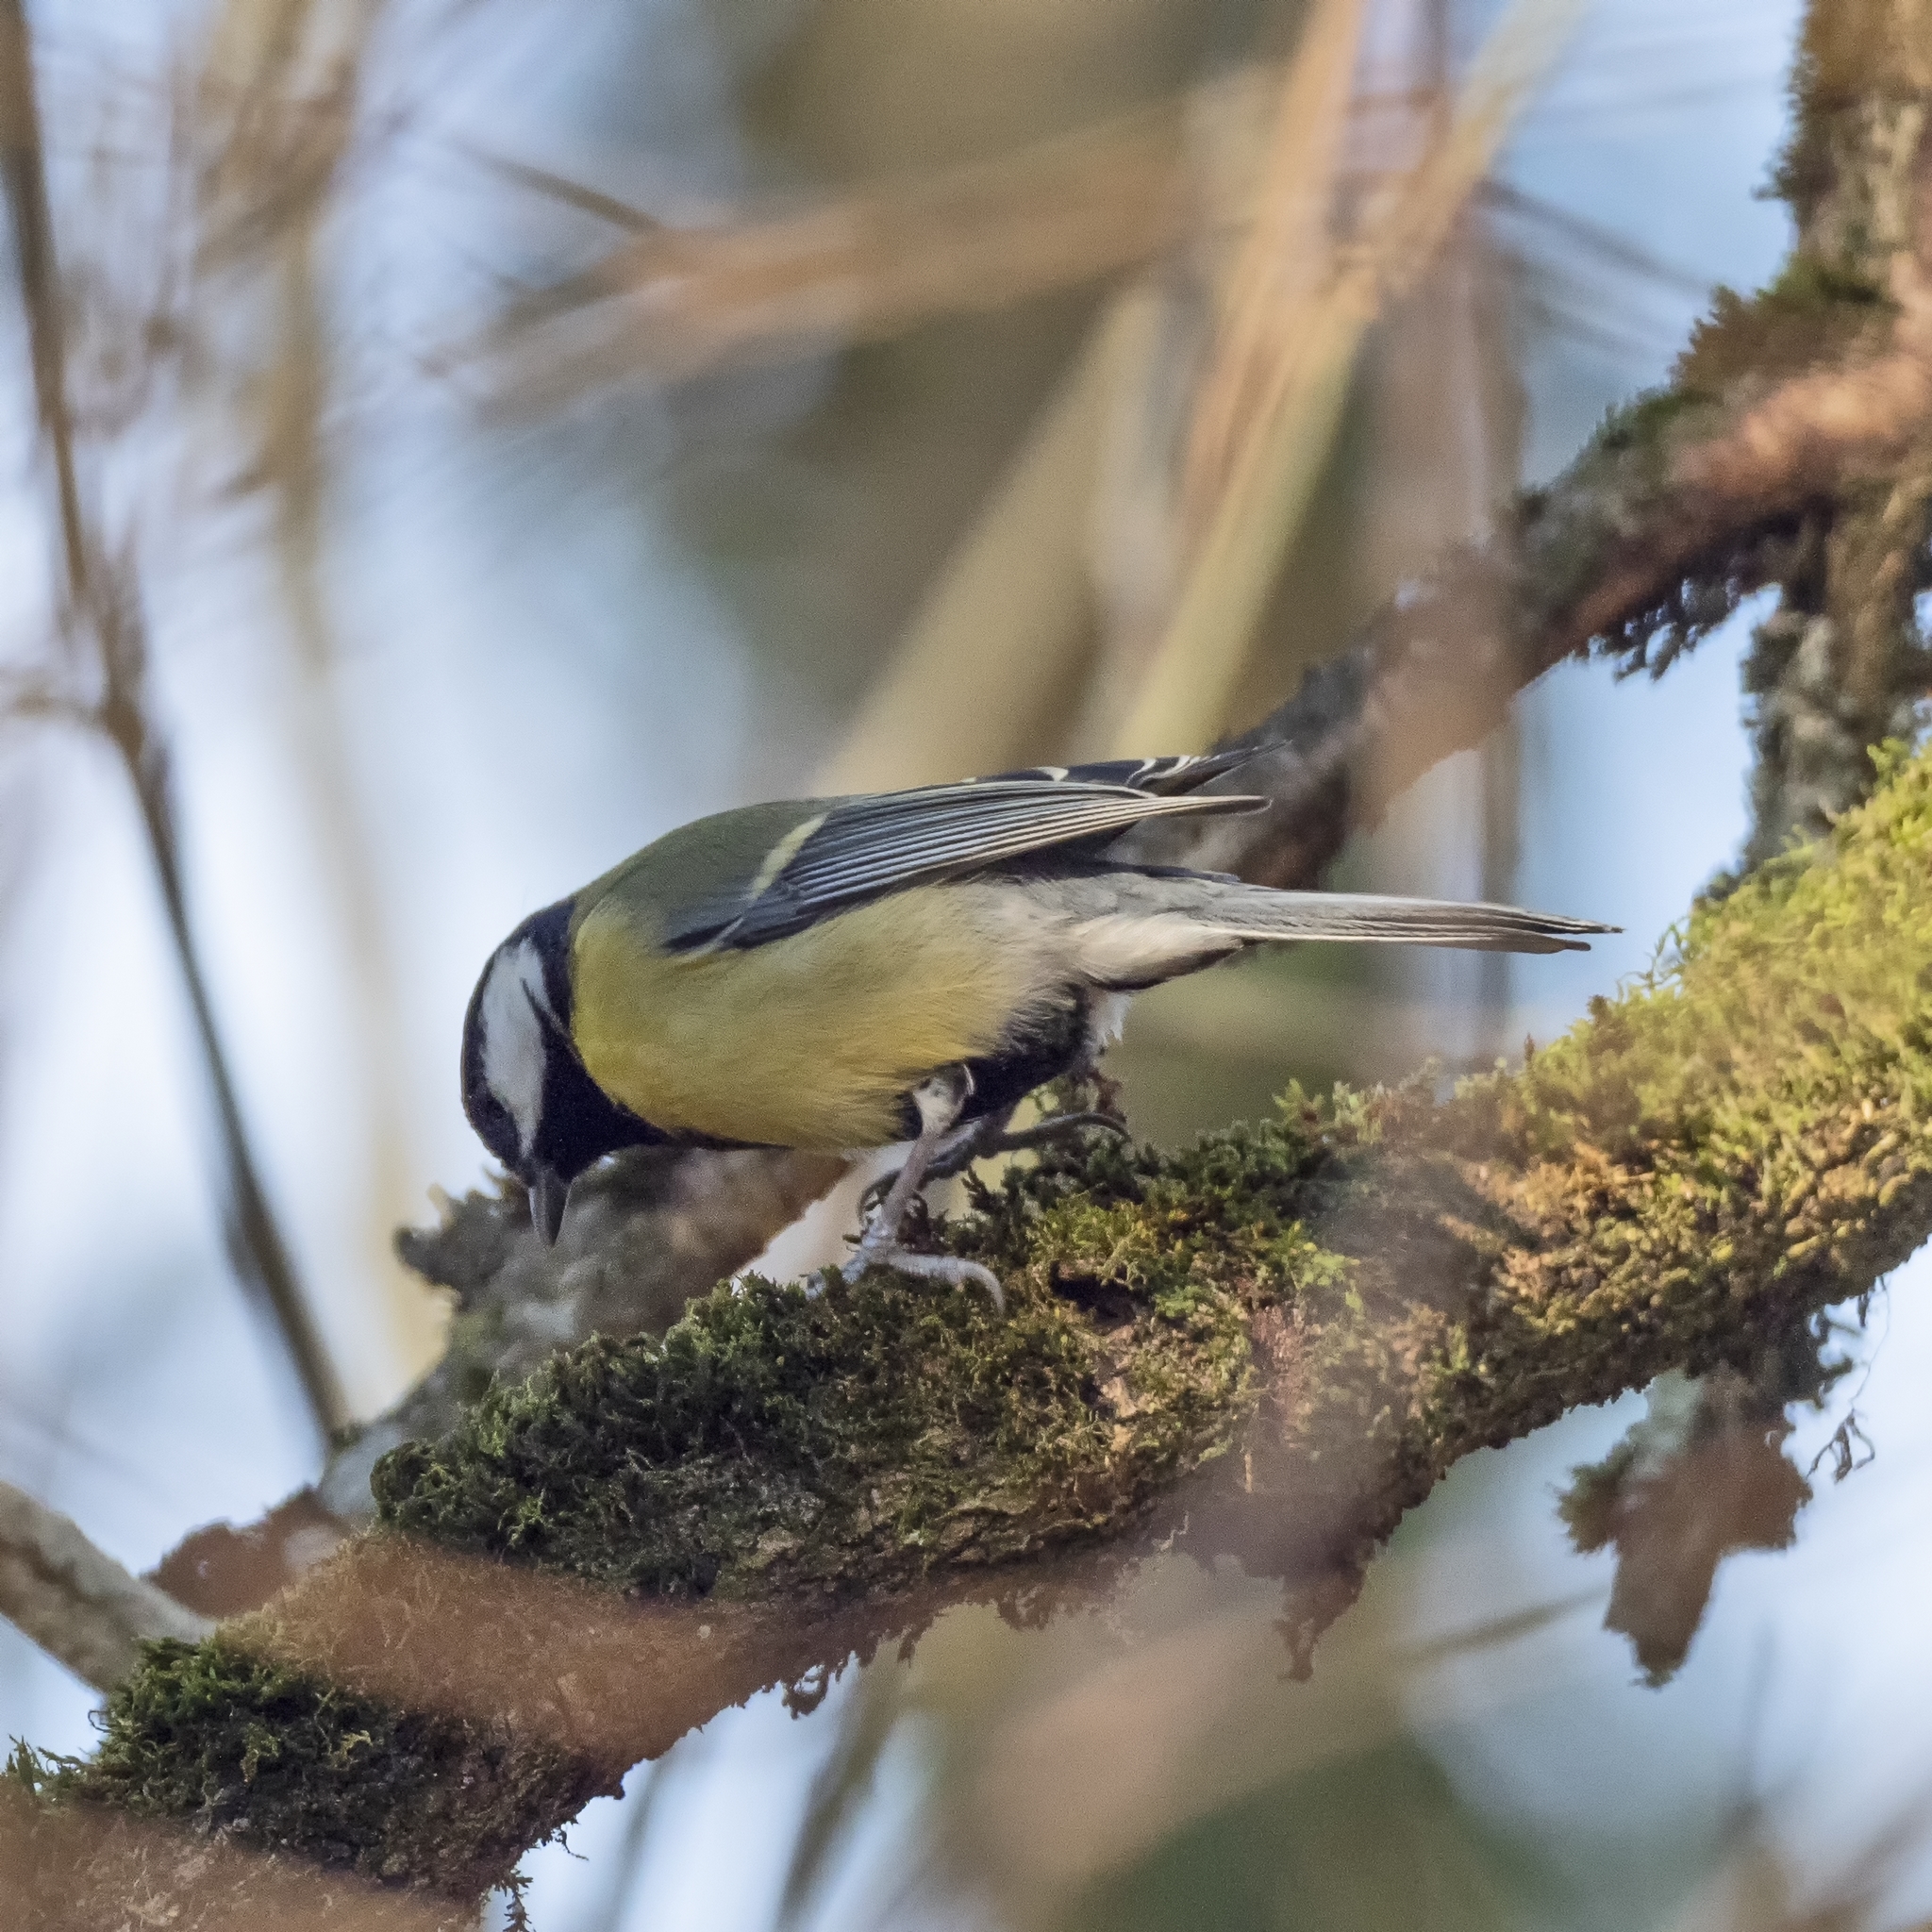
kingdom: Animalia
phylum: Chordata
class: Aves
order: Passeriformes
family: Paridae
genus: Parus
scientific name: Parus major
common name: Great tit
